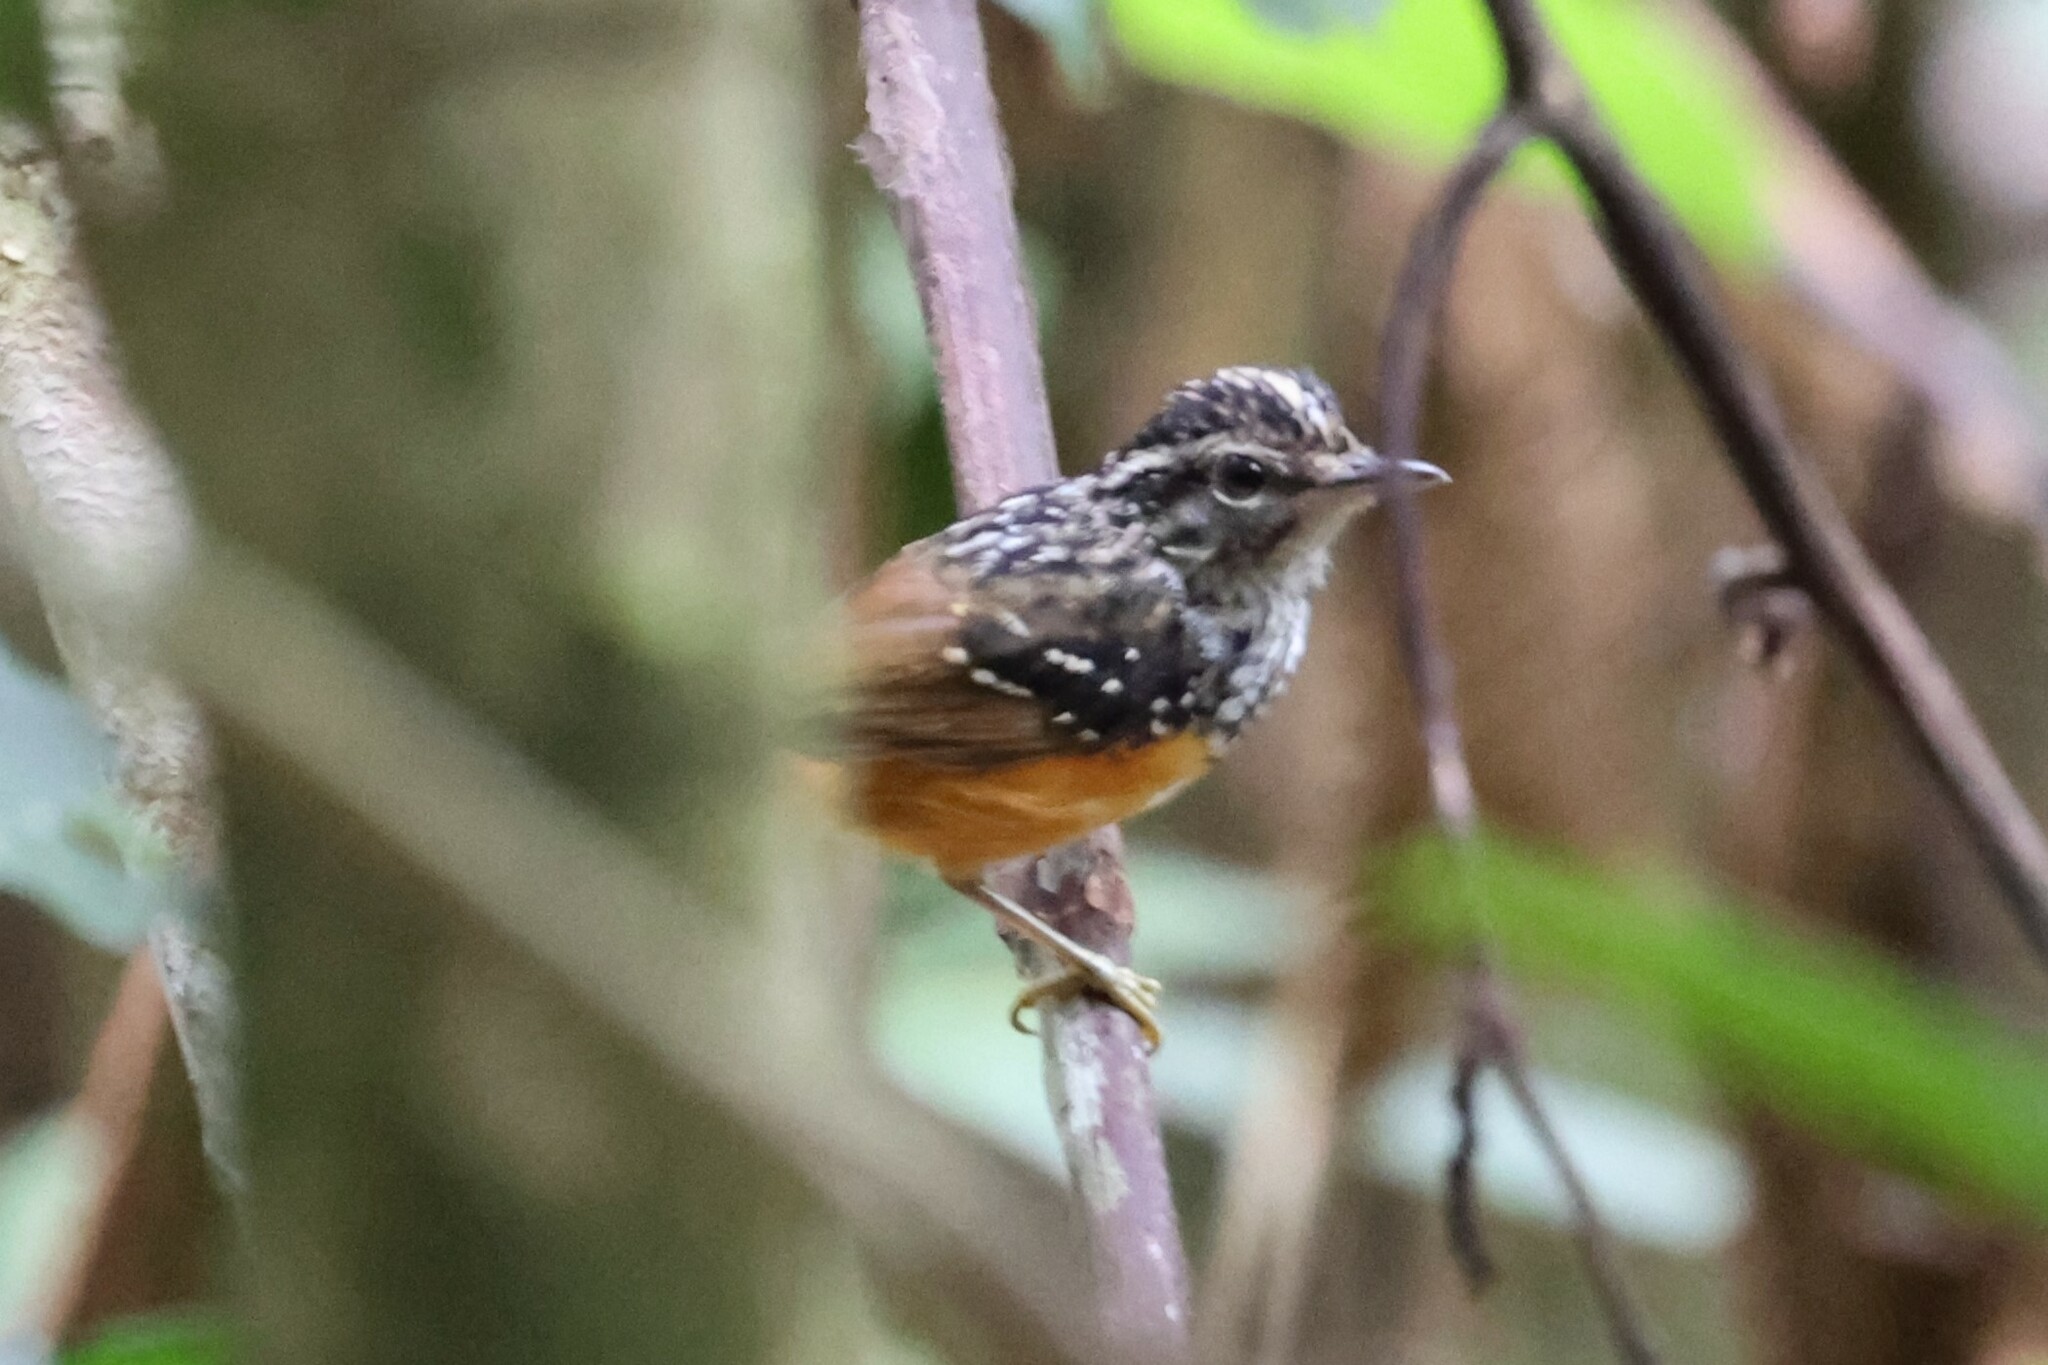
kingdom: Animalia
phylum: Chordata
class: Aves
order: Passeriformes
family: Thamnophilidae
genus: Hypocnemis
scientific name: Hypocnemis peruviana
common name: Peruvian warbling-antbird
